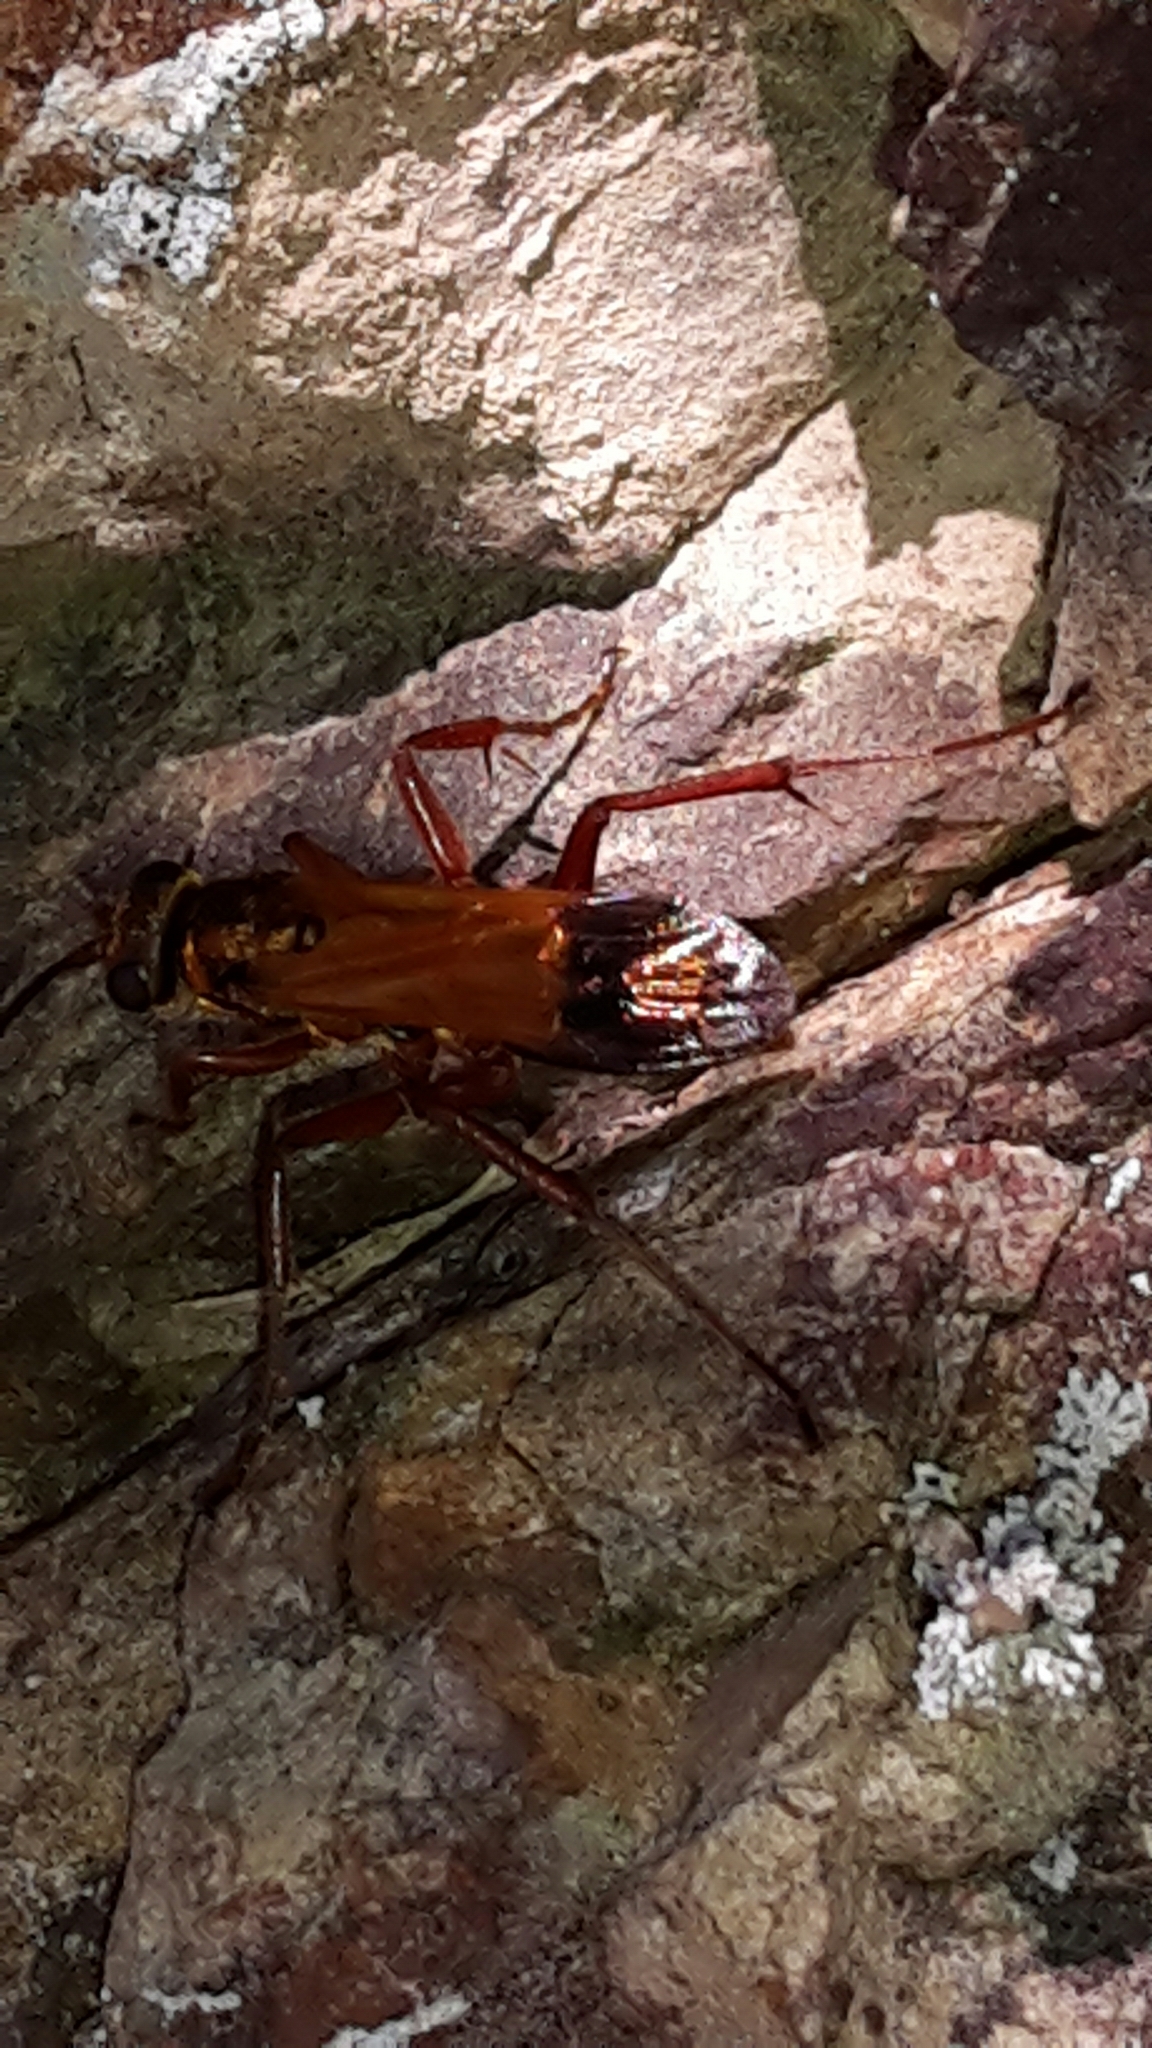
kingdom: Animalia
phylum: Arthropoda
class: Insecta
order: Hymenoptera
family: Pompilidae
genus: Sphictostethus
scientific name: Sphictostethus nitidus
